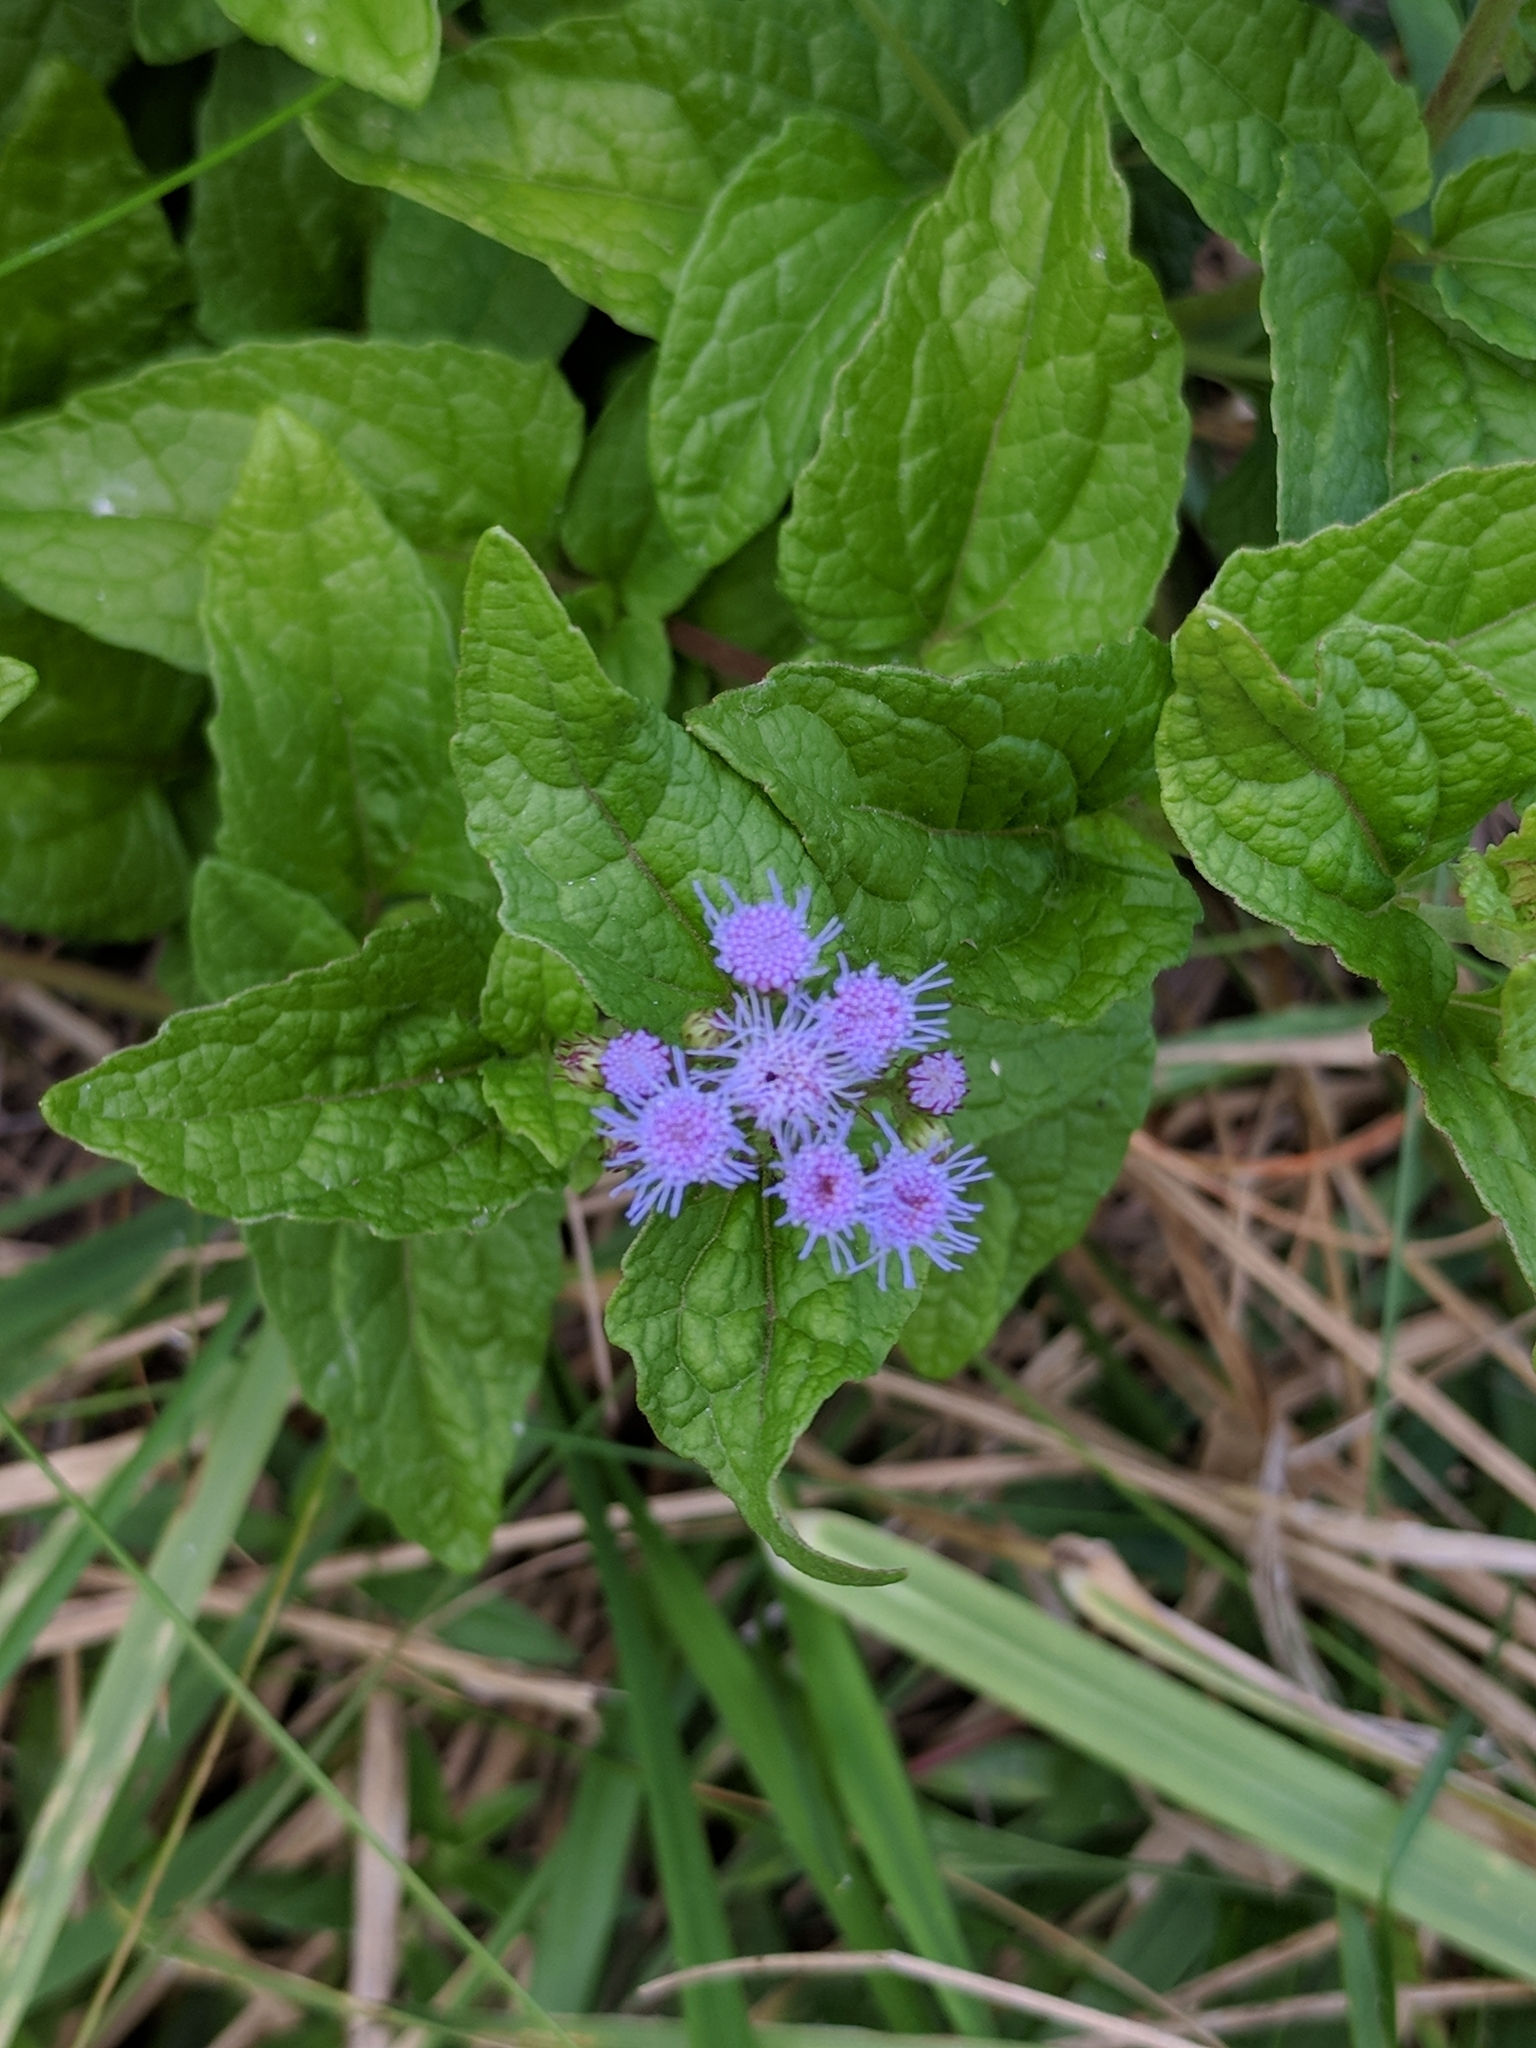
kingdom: Plantae
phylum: Tracheophyta
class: Magnoliopsida
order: Asterales
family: Asteraceae
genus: Conoclinium
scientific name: Conoclinium coelestinum
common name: Blue mistflower
